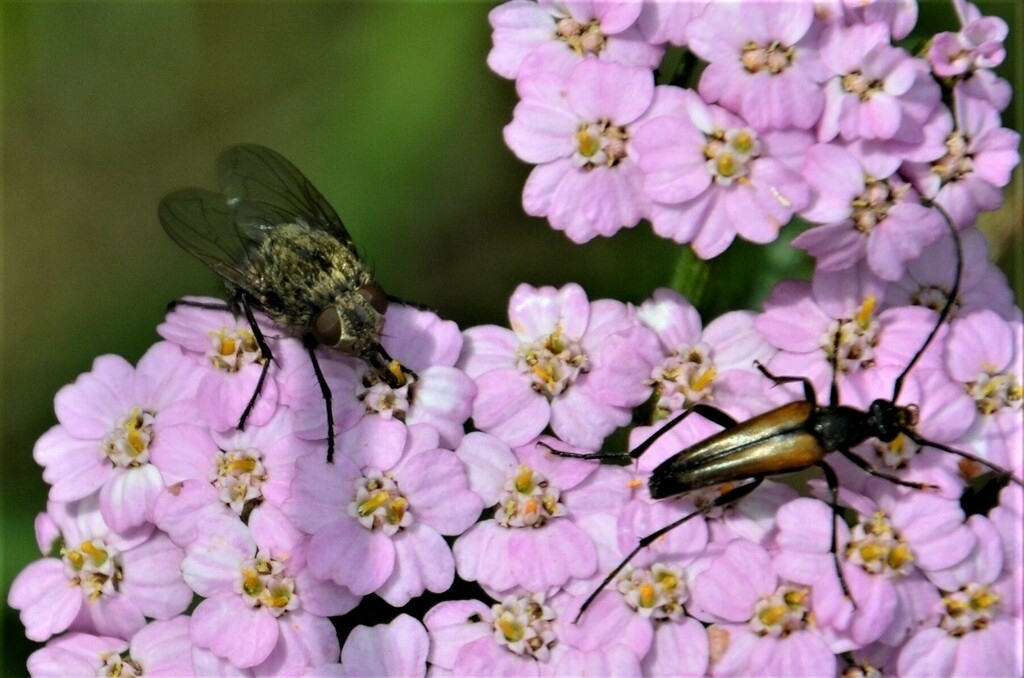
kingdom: Animalia
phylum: Arthropoda
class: Insecta
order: Coleoptera
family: Cerambycidae
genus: Stenurella
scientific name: Stenurella melanura
